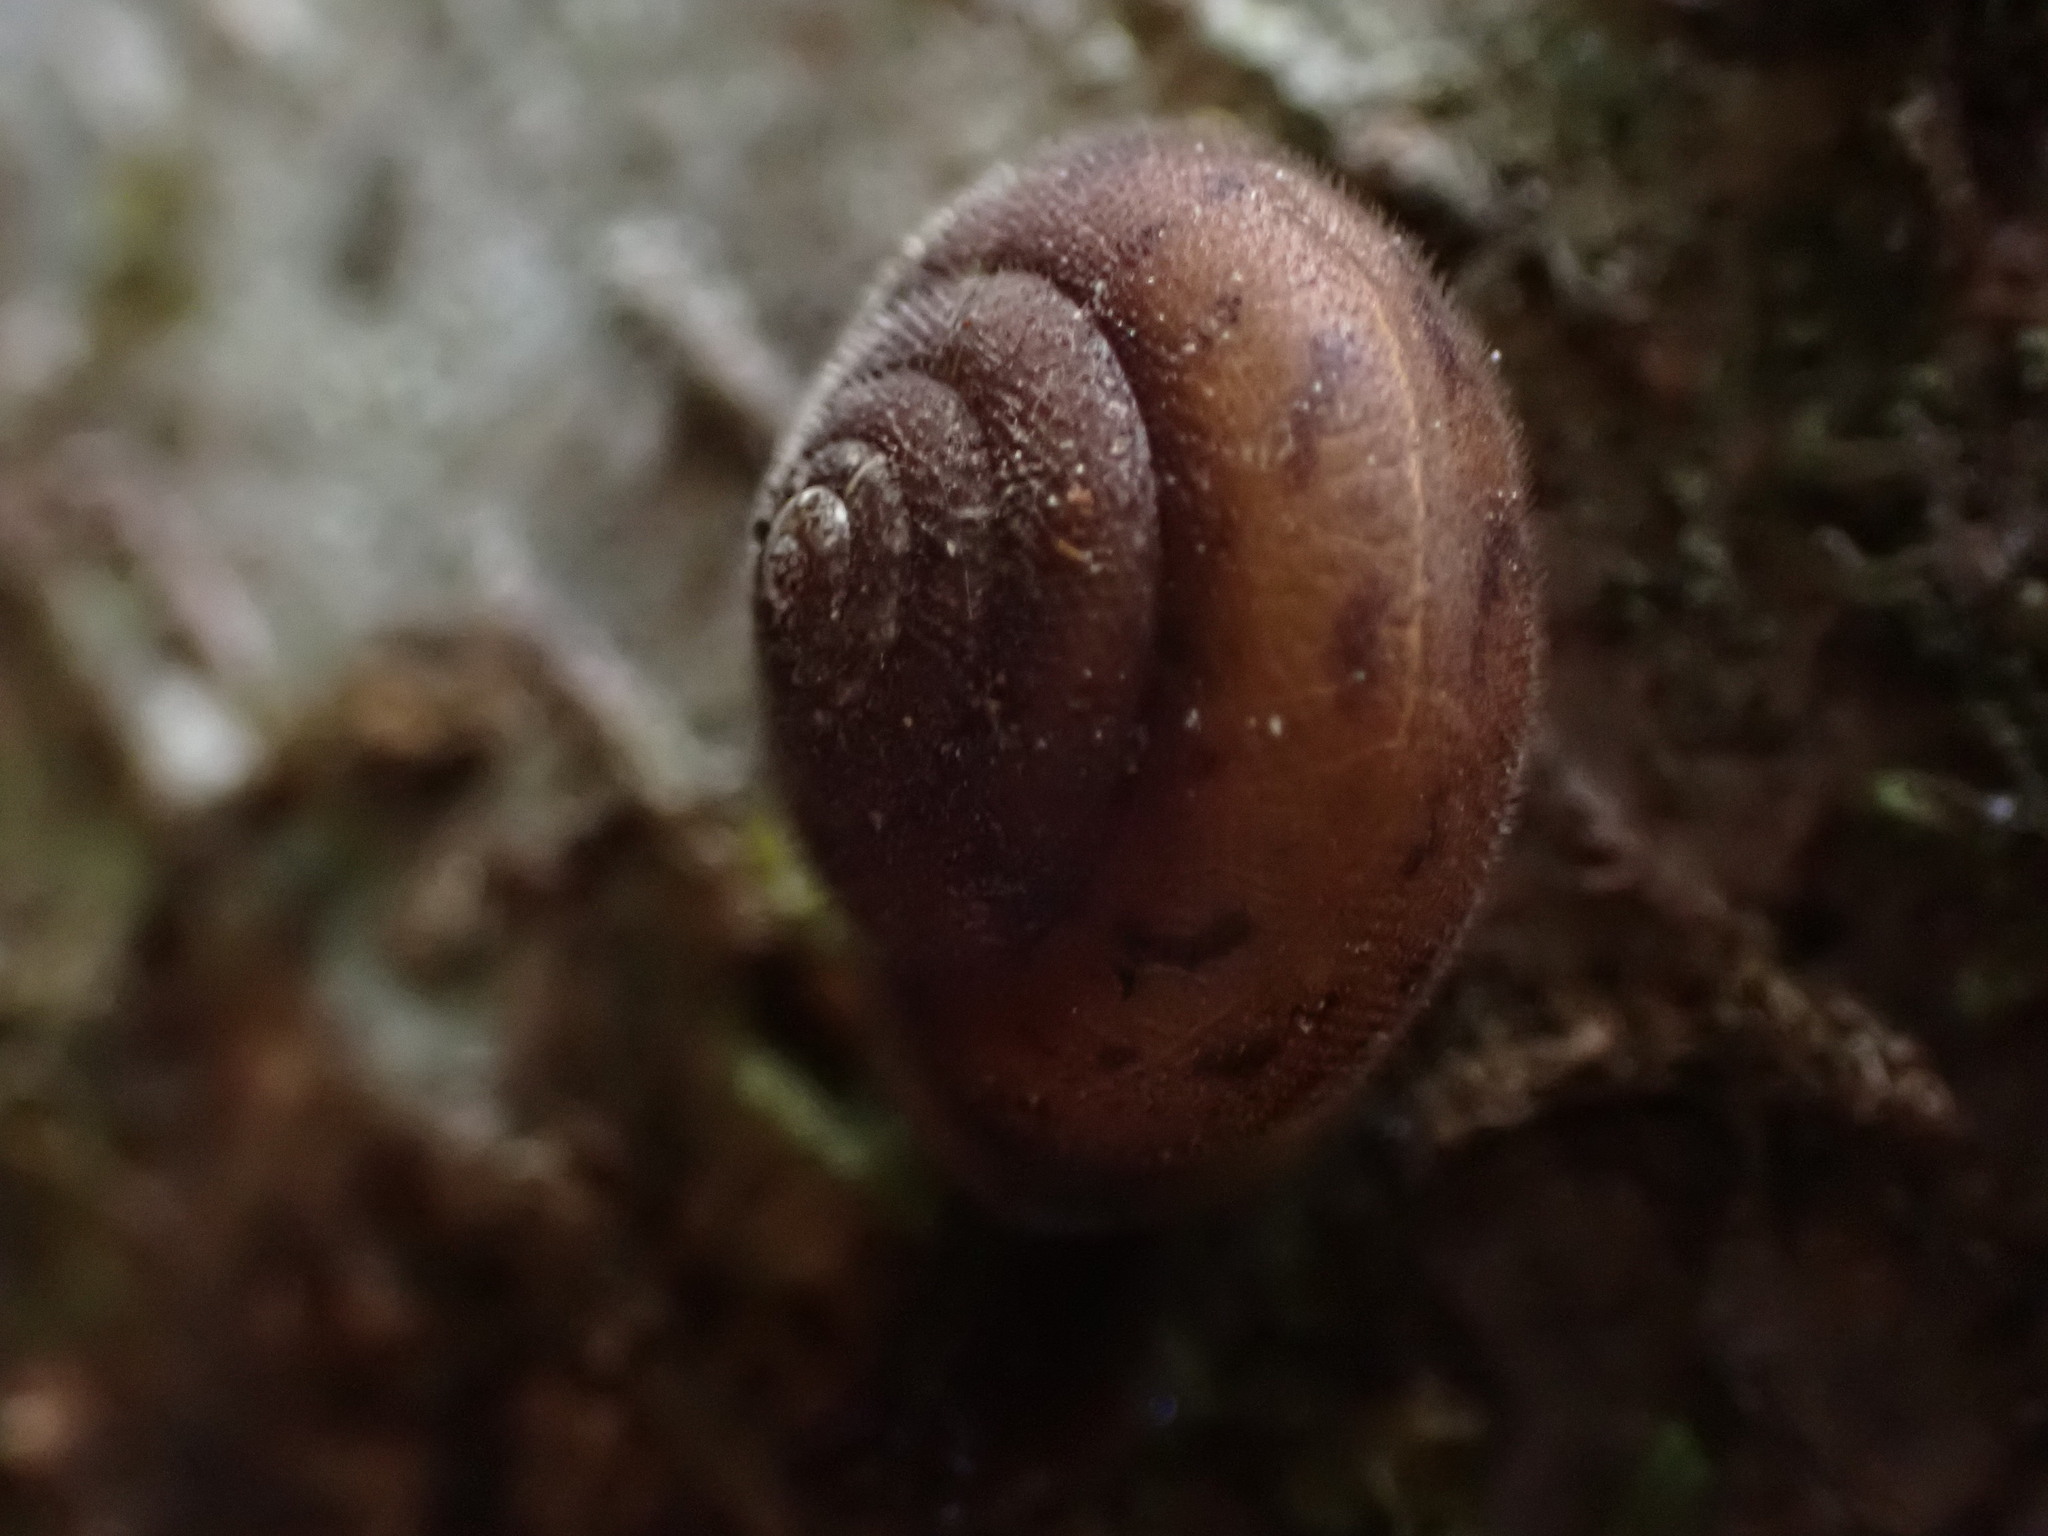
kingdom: Animalia
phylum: Mollusca
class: Gastropoda
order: Stylommatophora
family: Polygyridae
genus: Vespericola
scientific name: Vespericola columbianus
